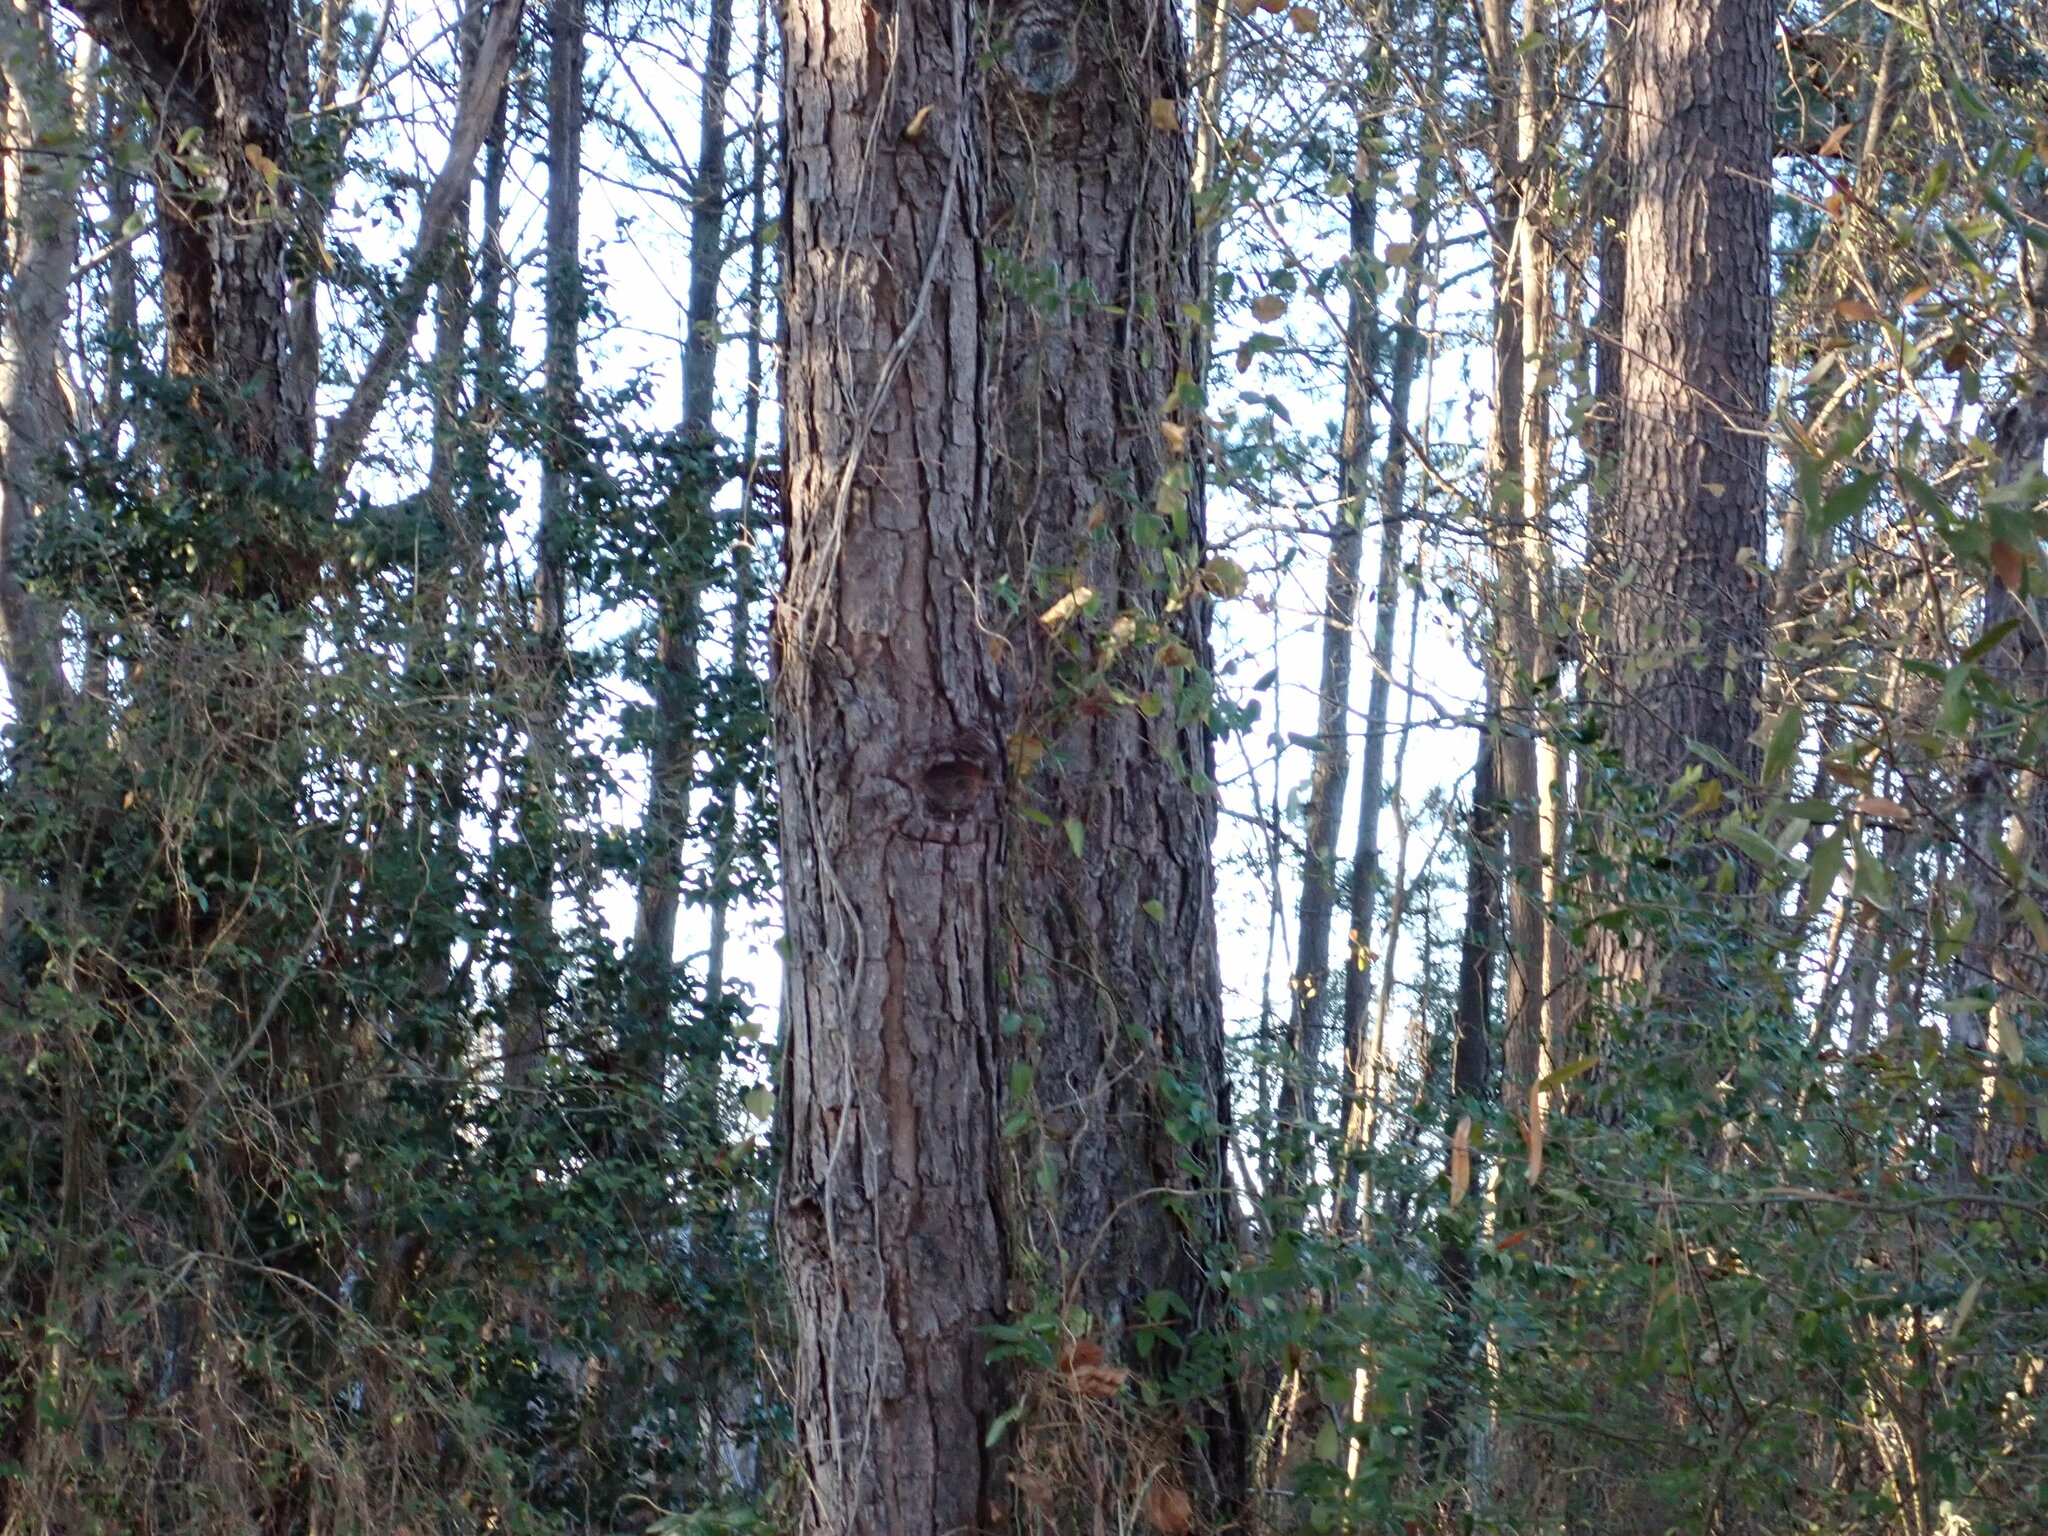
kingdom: Plantae
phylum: Tracheophyta
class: Pinopsida
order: Pinales
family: Pinaceae
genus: Pinus
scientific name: Pinus taeda
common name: Loblolly pine
